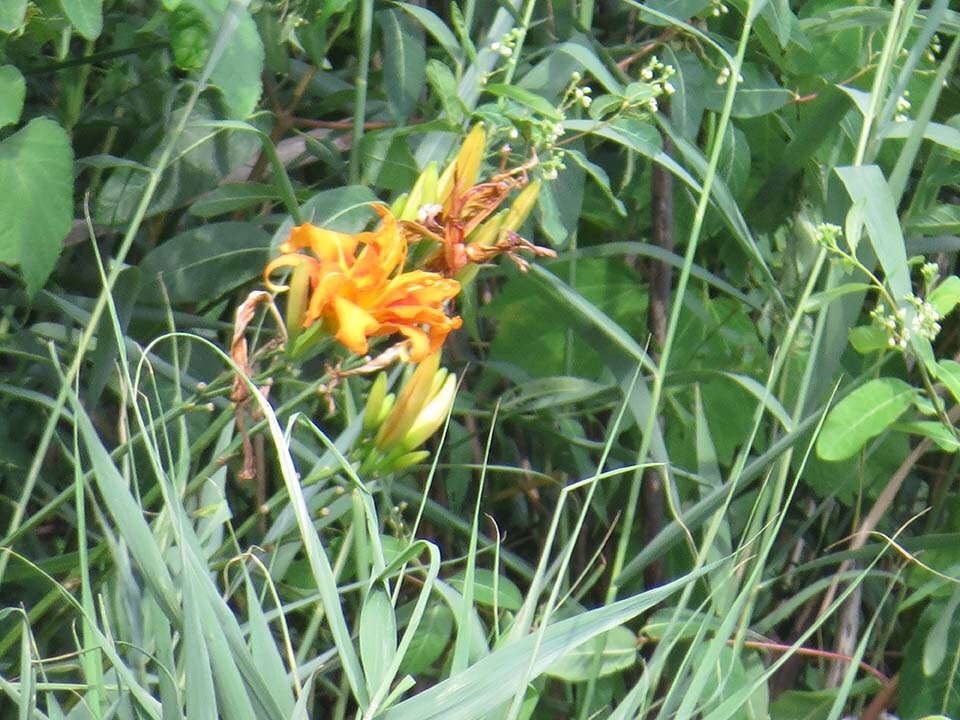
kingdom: Plantae
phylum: Tracheophyta
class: Liliopsida
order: Asparagales
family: Asphodelaceae
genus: Hemerocallis
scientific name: Hemerocallis fulva
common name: Orange day-lily
